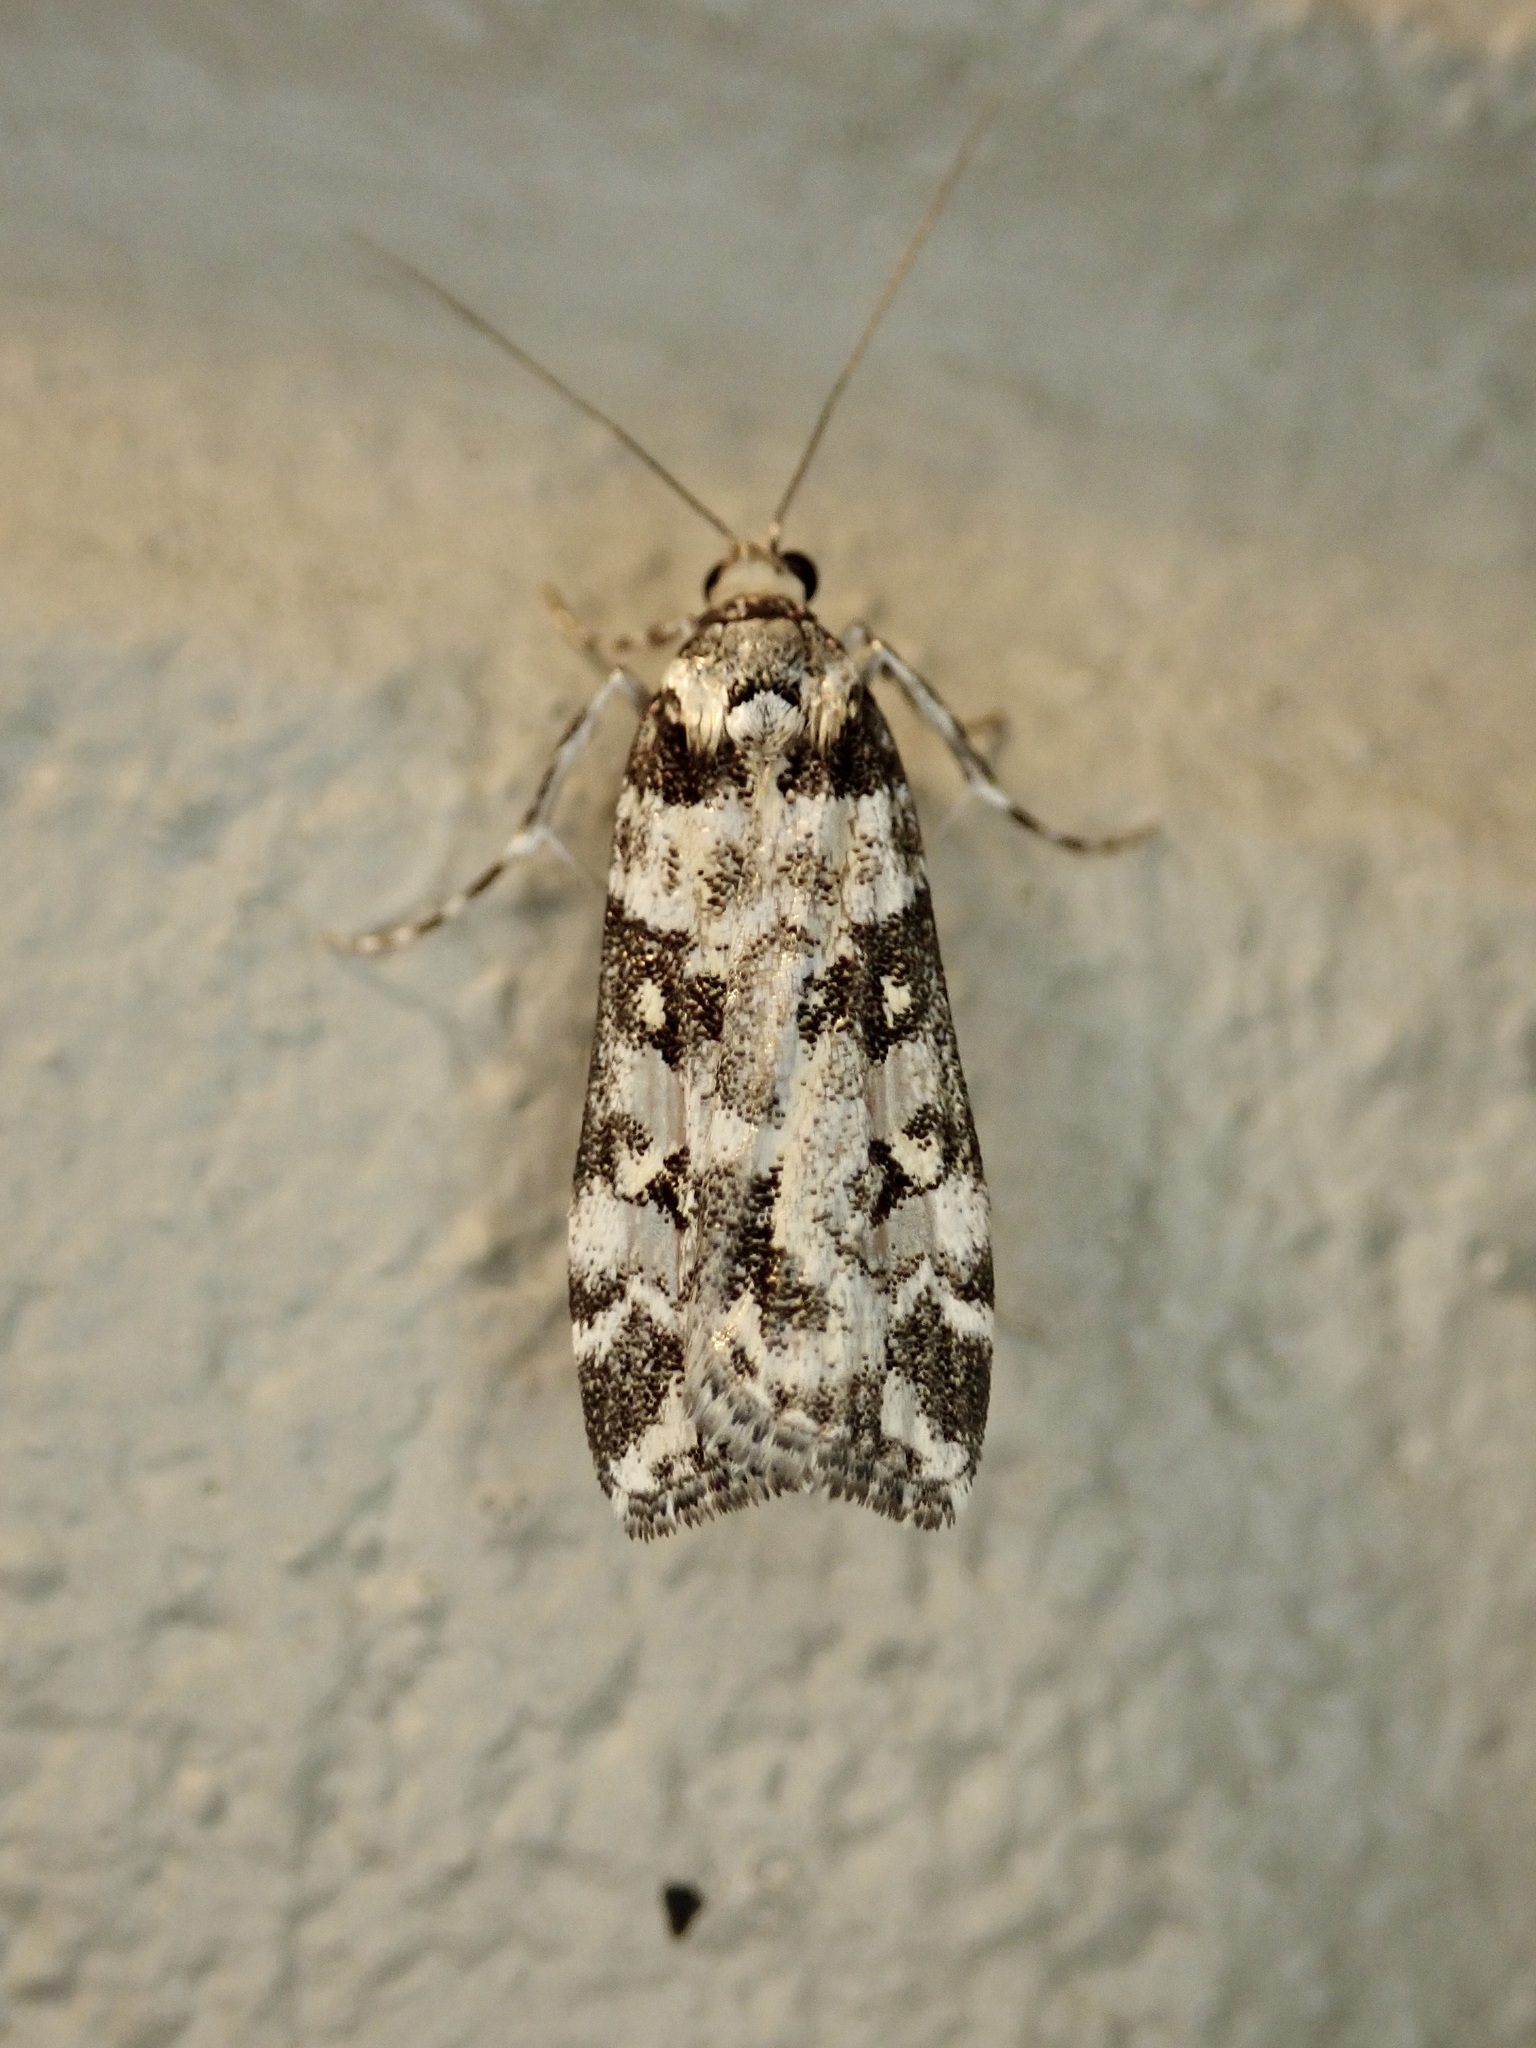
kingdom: Animalia
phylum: Arthropoda
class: Insecta
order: Lepidoptera
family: Crambidae
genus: Eudonia
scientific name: Eudonia diphtheralis
